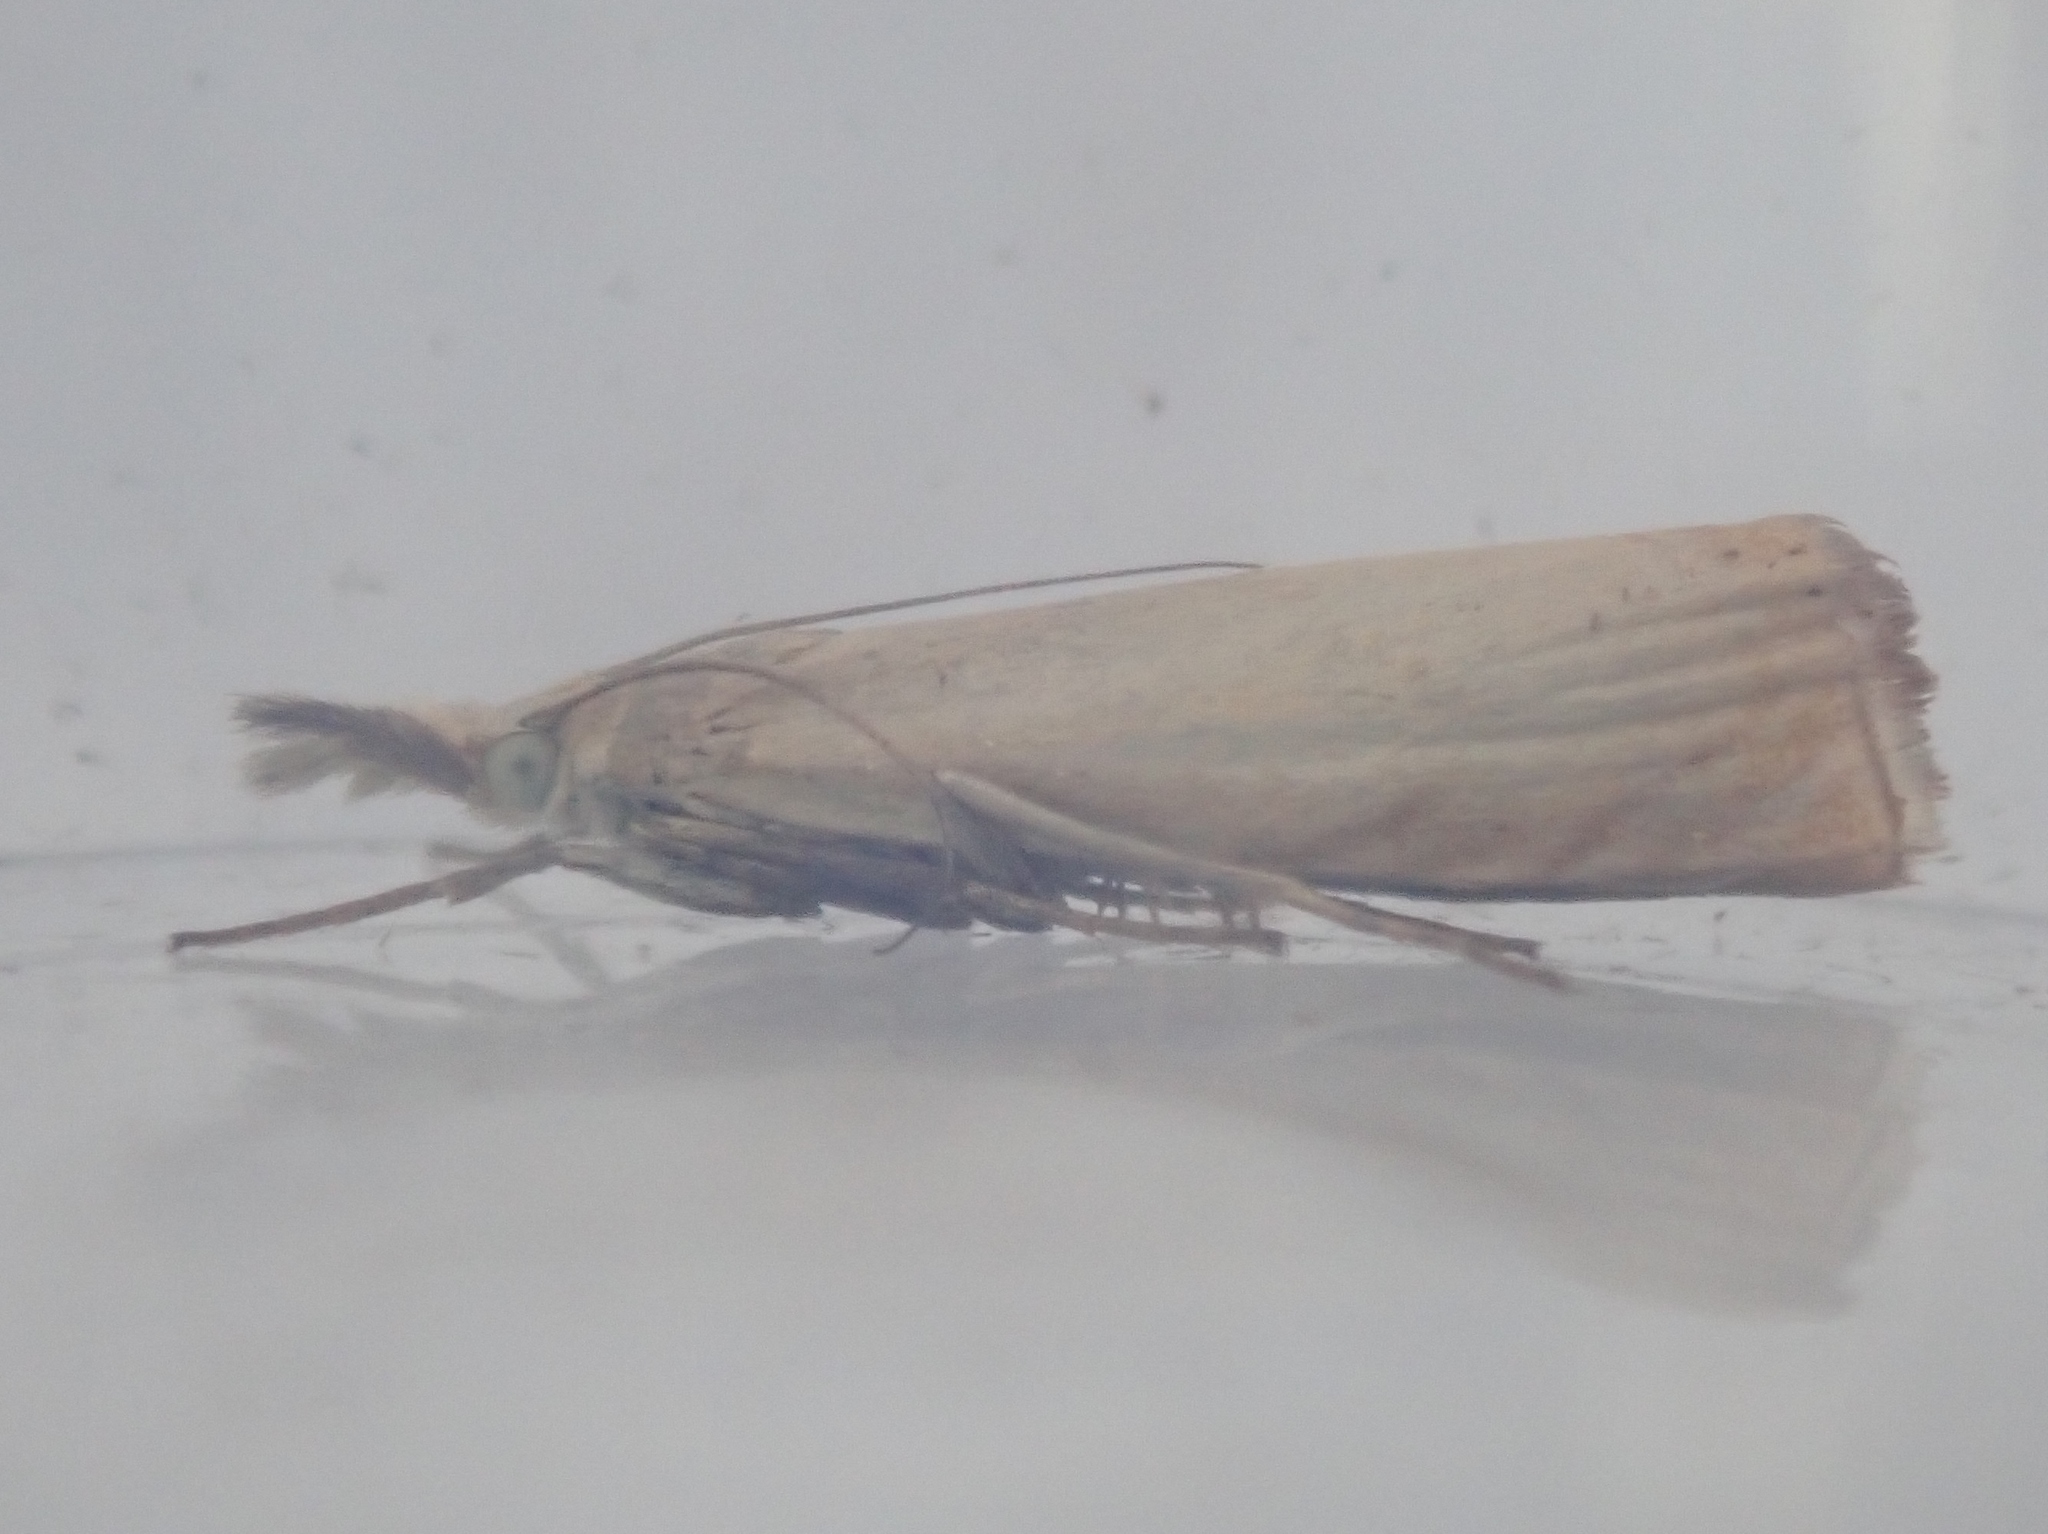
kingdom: Animalia
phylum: Arthropoda
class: Insecta
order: Lepidoptera
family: Crambidae
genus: Chrysoteuchia
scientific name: Chrysoteuchia culmella
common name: Garden grass-veneer
